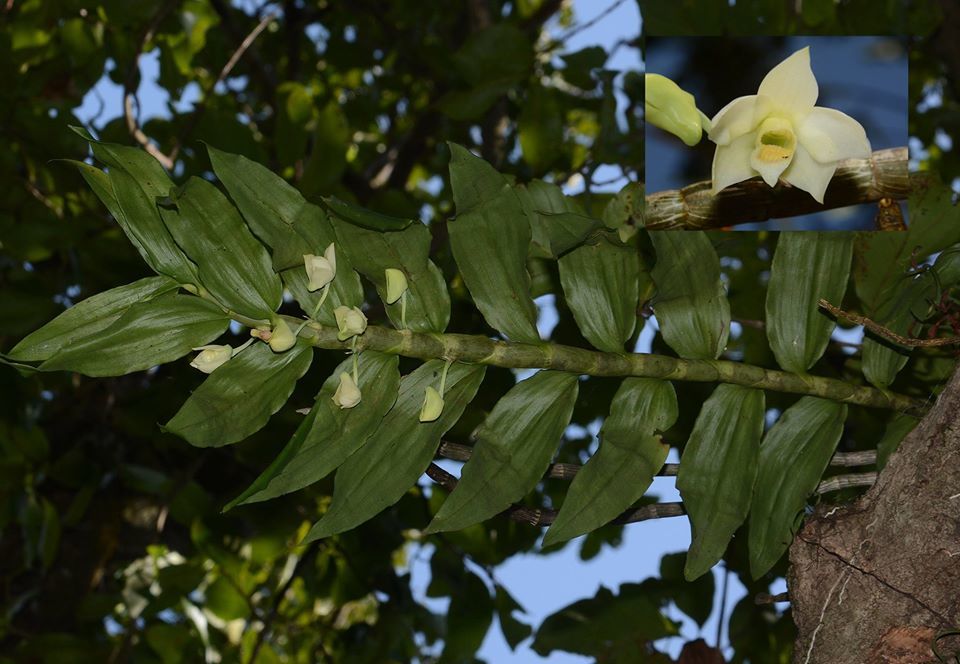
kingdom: Plantae
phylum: Tracheophyta
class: Liliopsida
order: Asparagales
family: Orchidaceae
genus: Dendrobium
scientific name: Dendrobium aqueum
